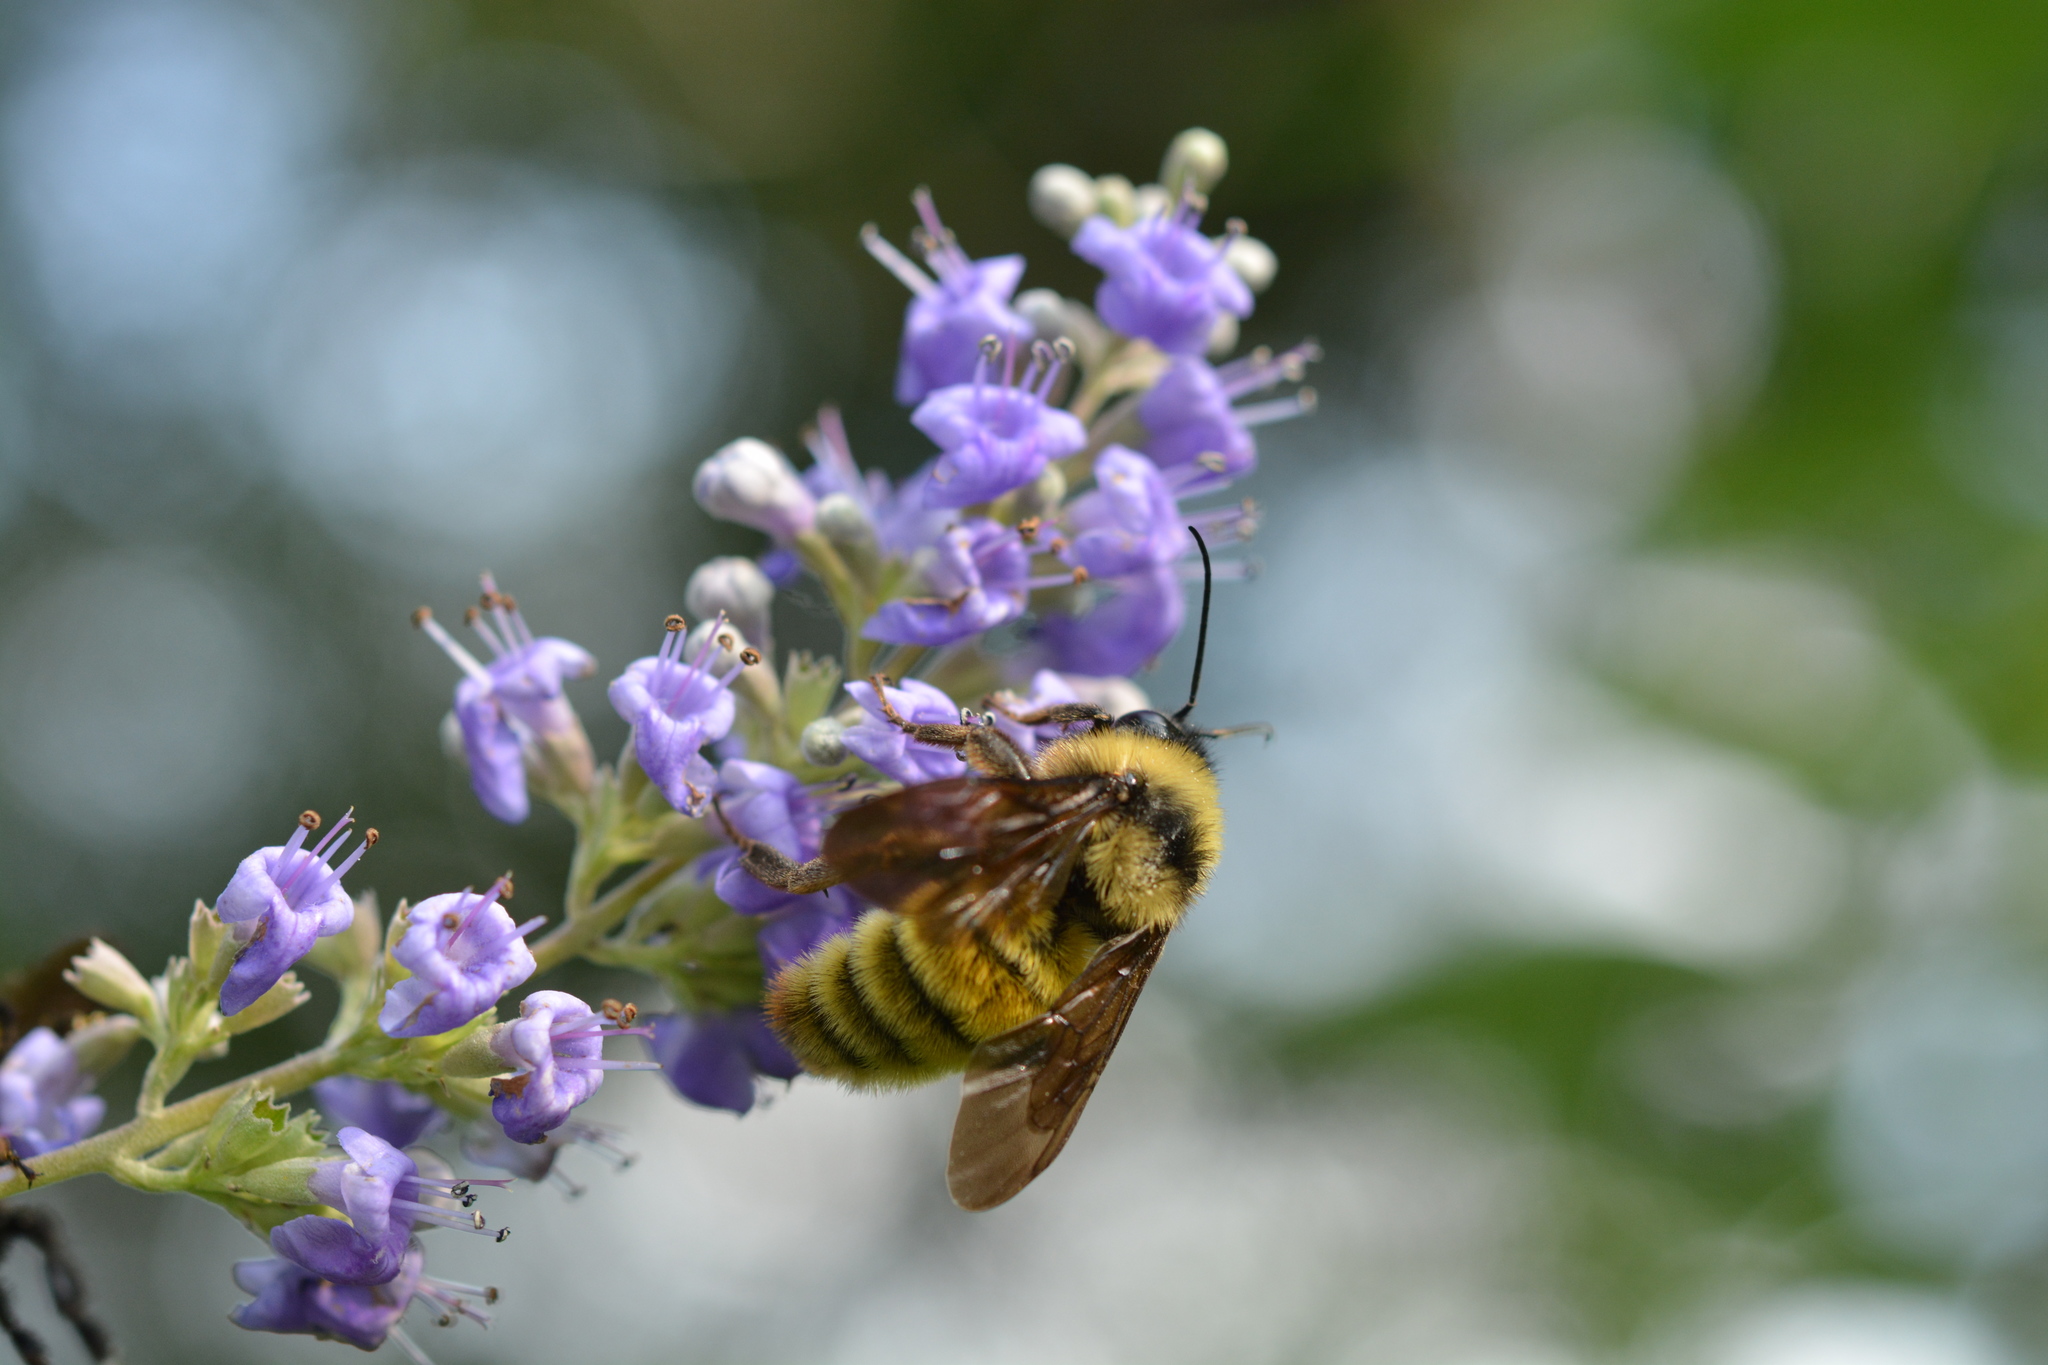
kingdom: Animalia
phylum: Arthropoda
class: Insecta
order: Hymenoptera
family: Apidae
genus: Bombus
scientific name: Bombus pensylvanicus
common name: Bumble bee
